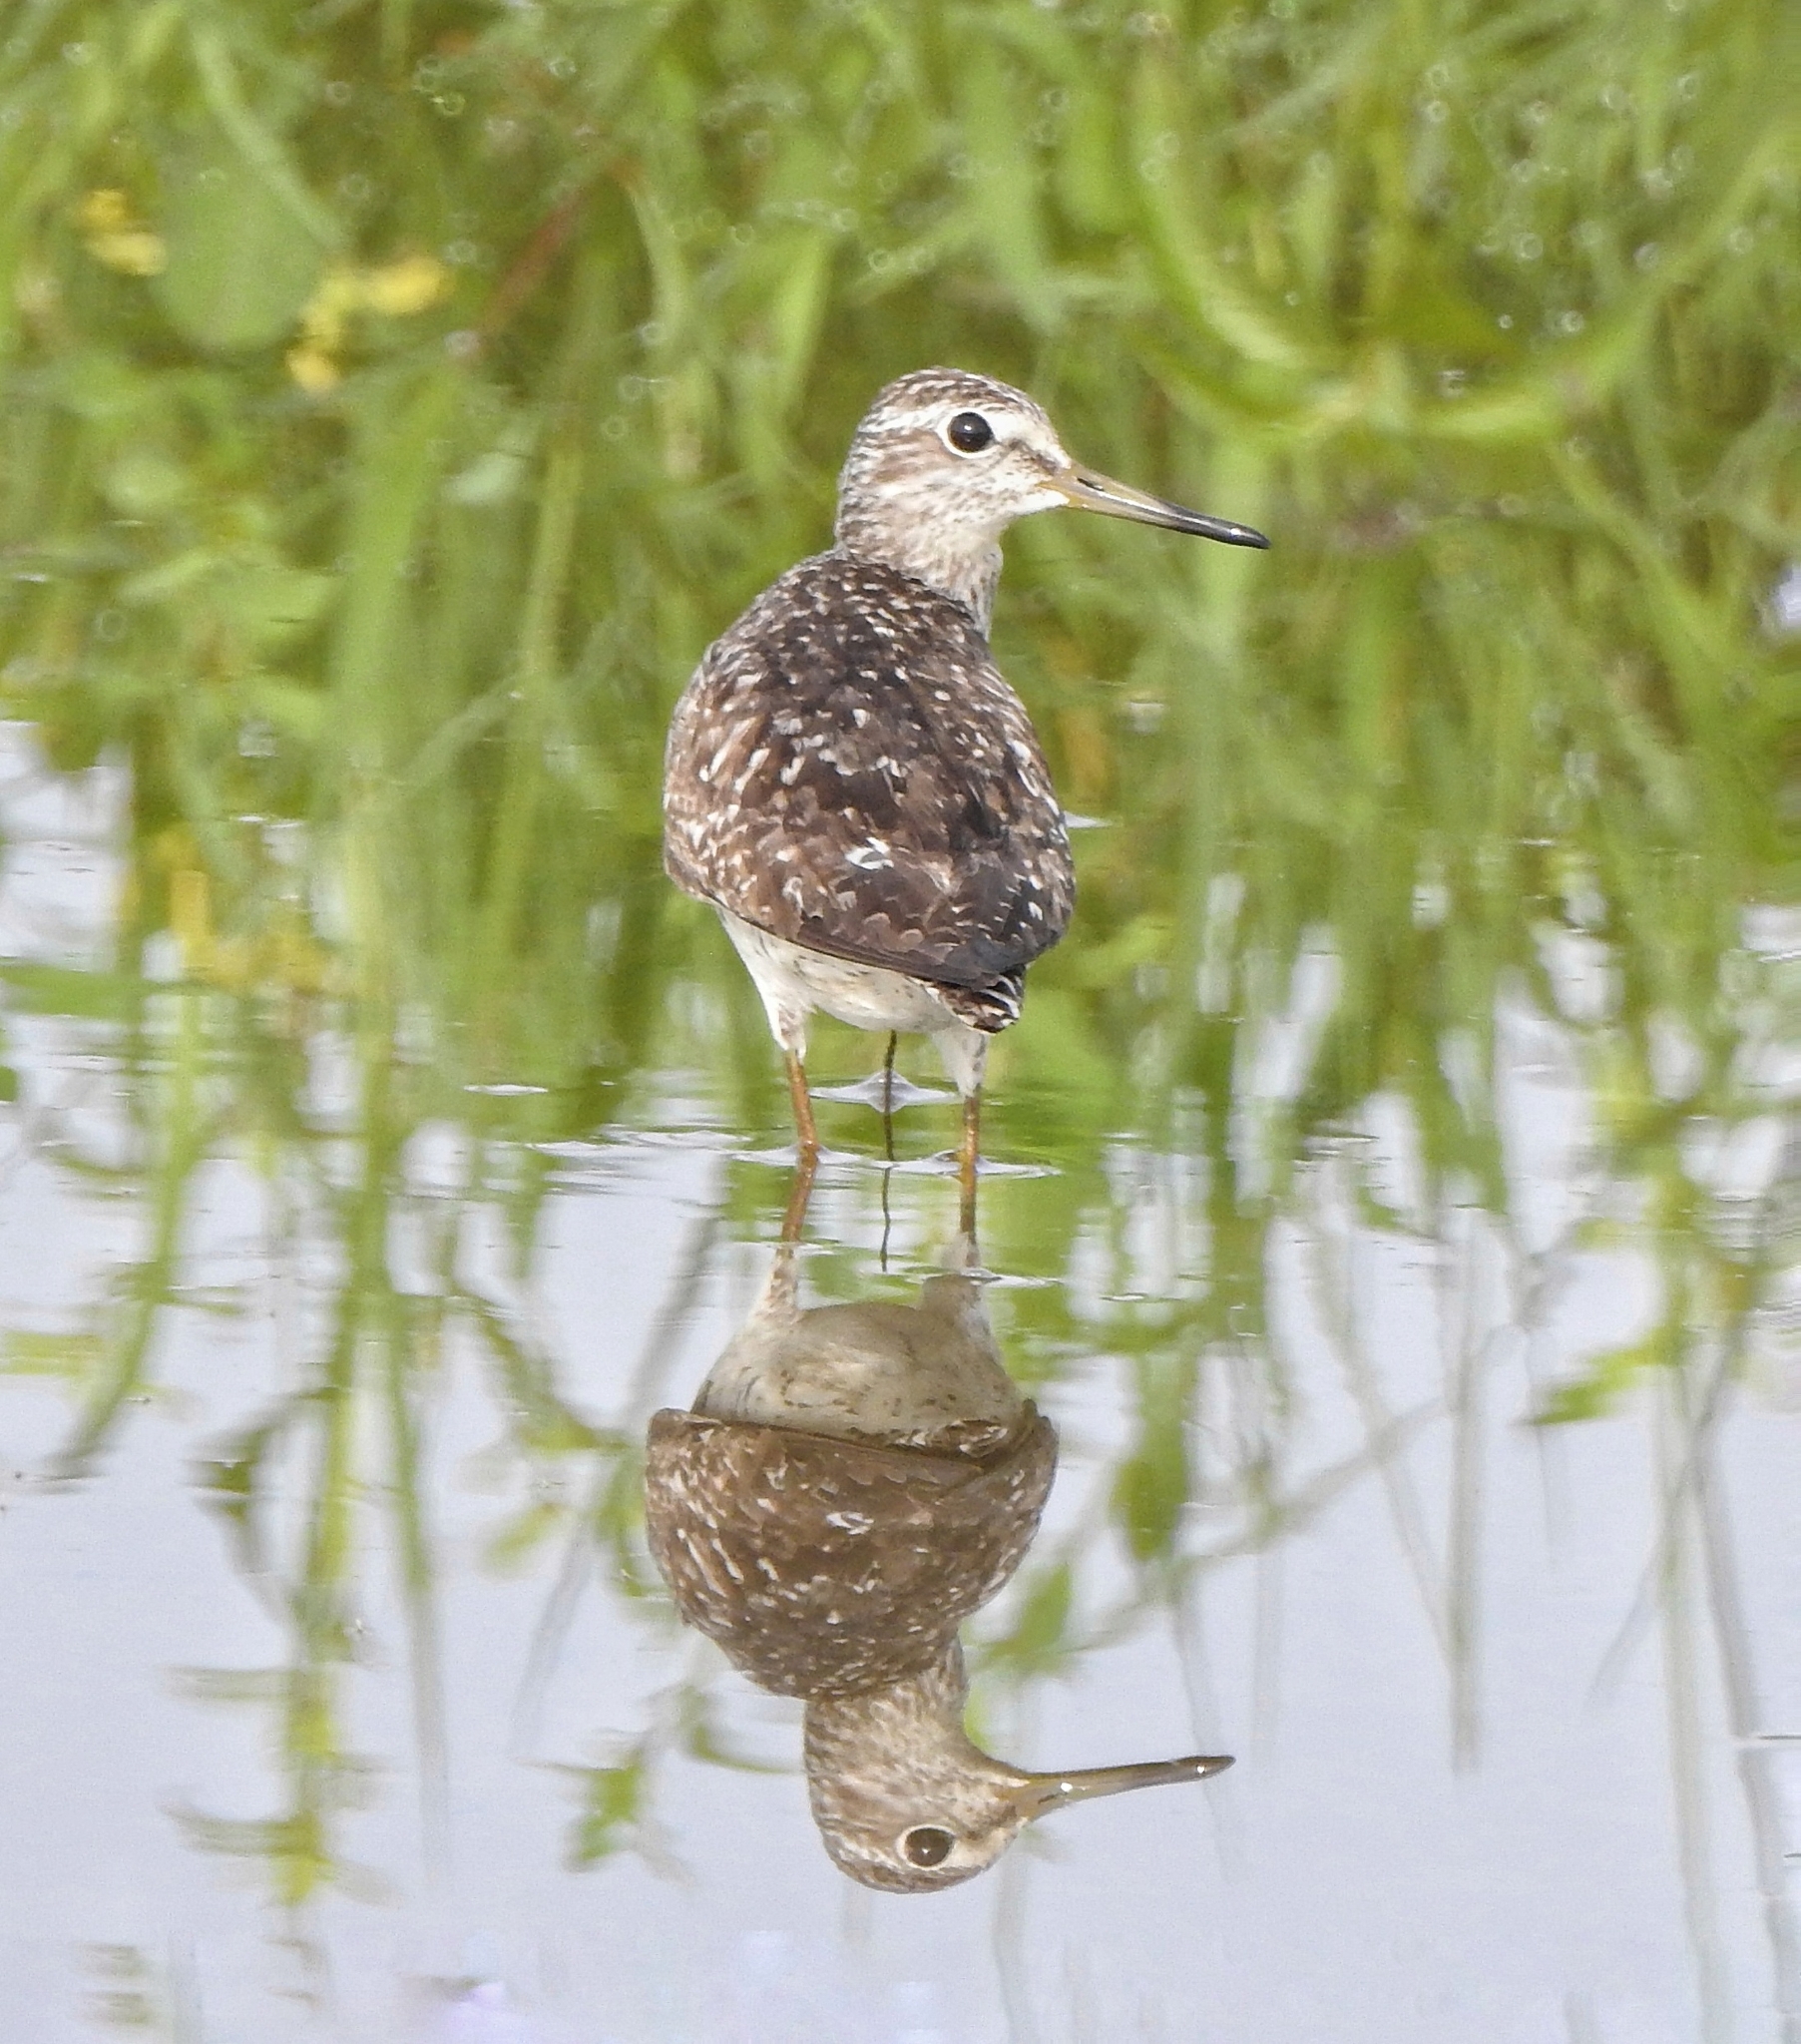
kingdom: Animalia
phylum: Chordata
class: Aves
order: Charadriiformes
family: Scolopacidae
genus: Tringa
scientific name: Tringa glareola
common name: Wood sandpiper
